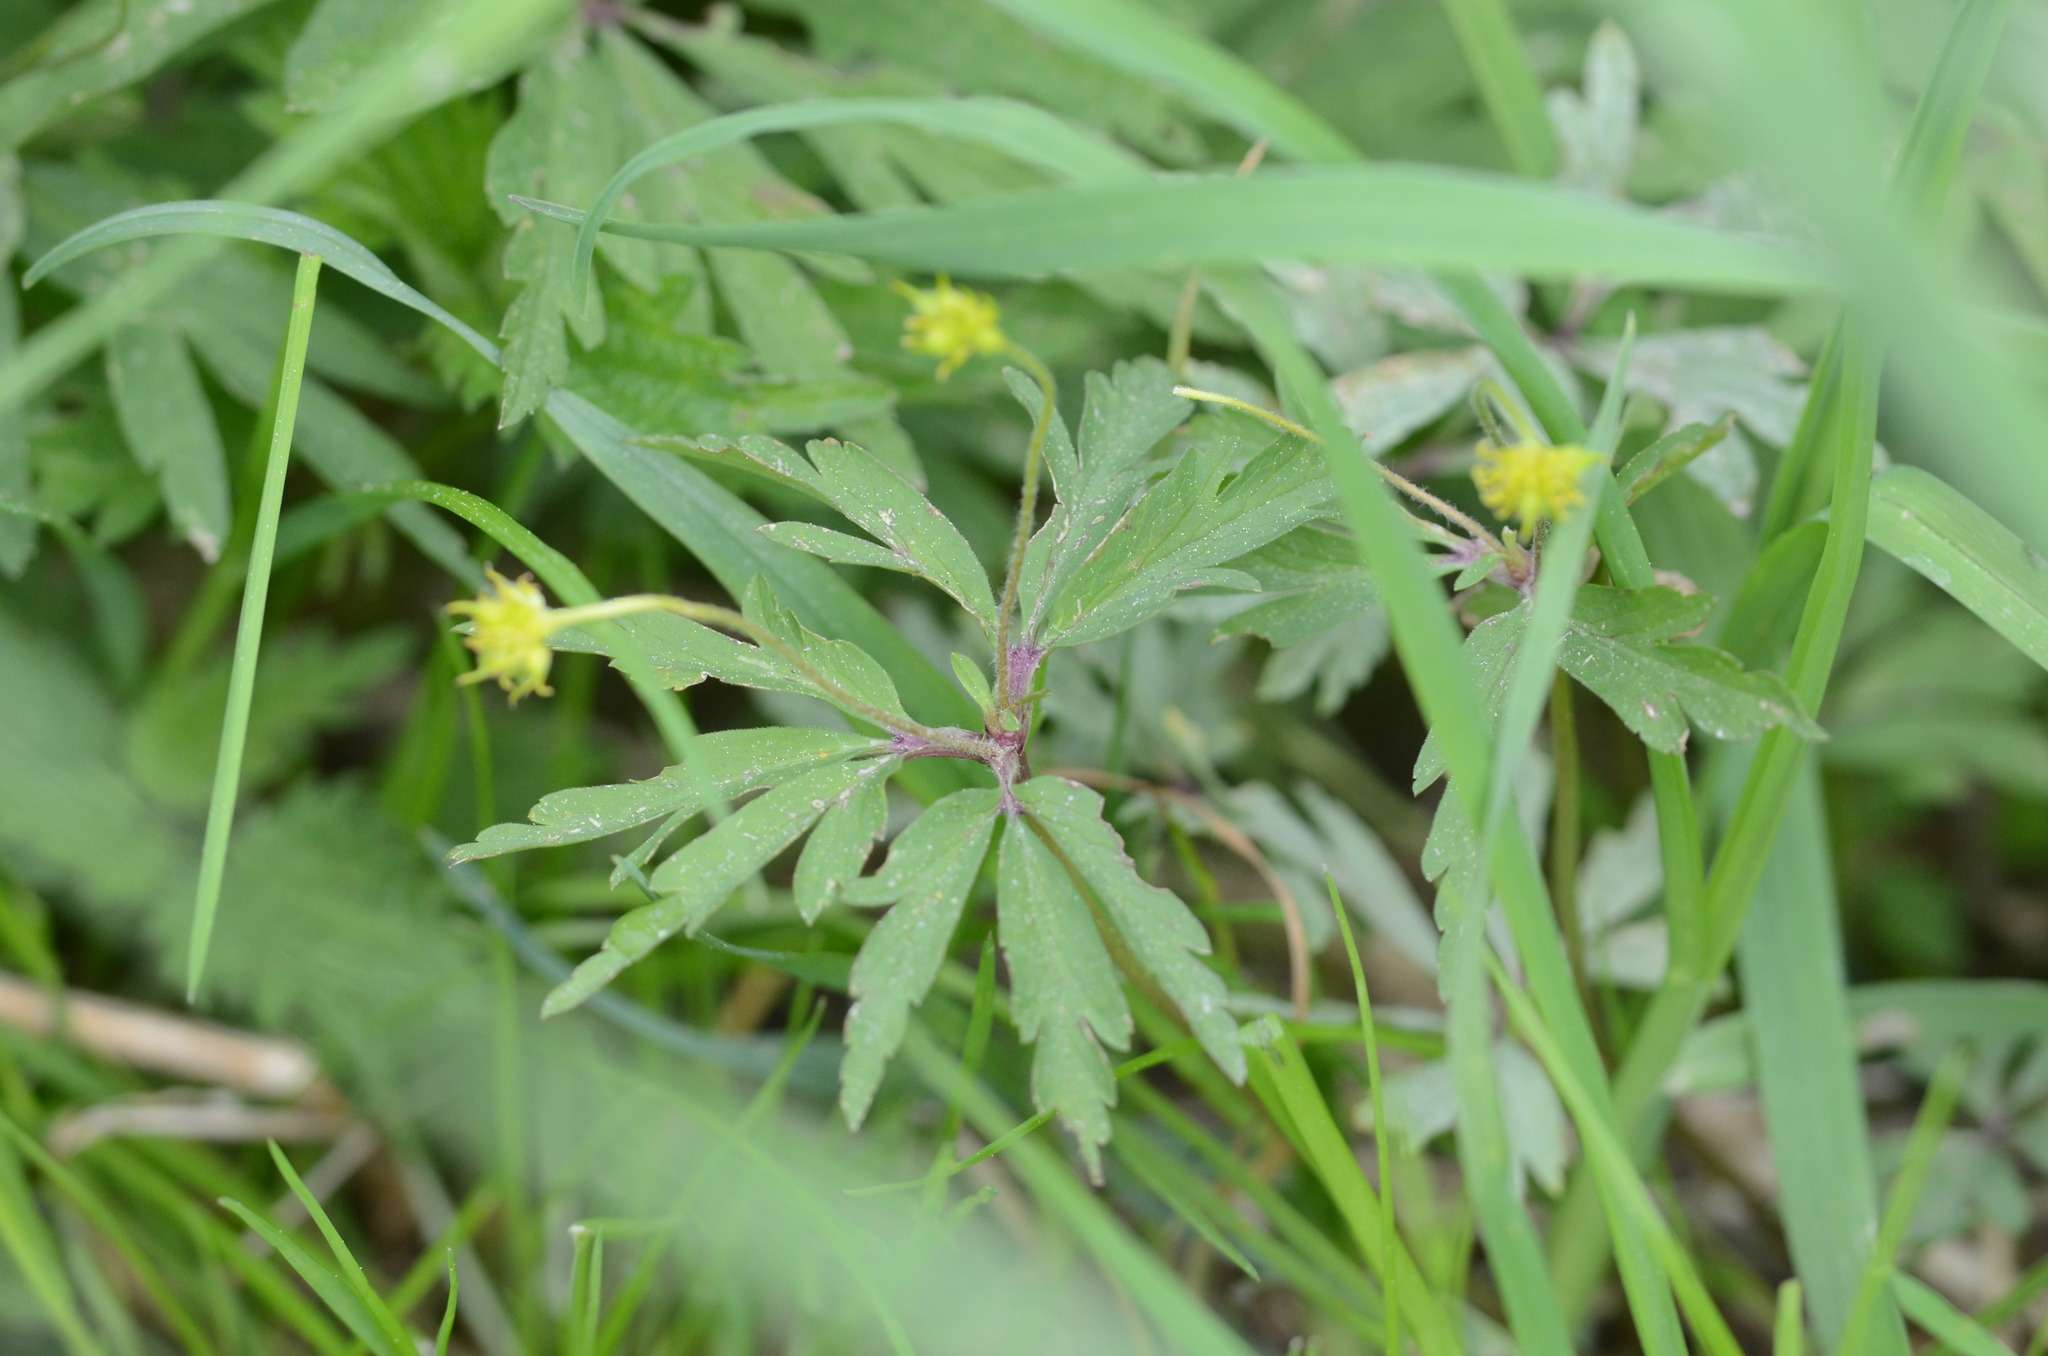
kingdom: Plantae
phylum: Tracheophyta
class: Magnoliopsida
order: Ranunculales
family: Ranunculaceae
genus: Anemone
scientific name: Anemone ranunculoides
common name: Yellow anemone
